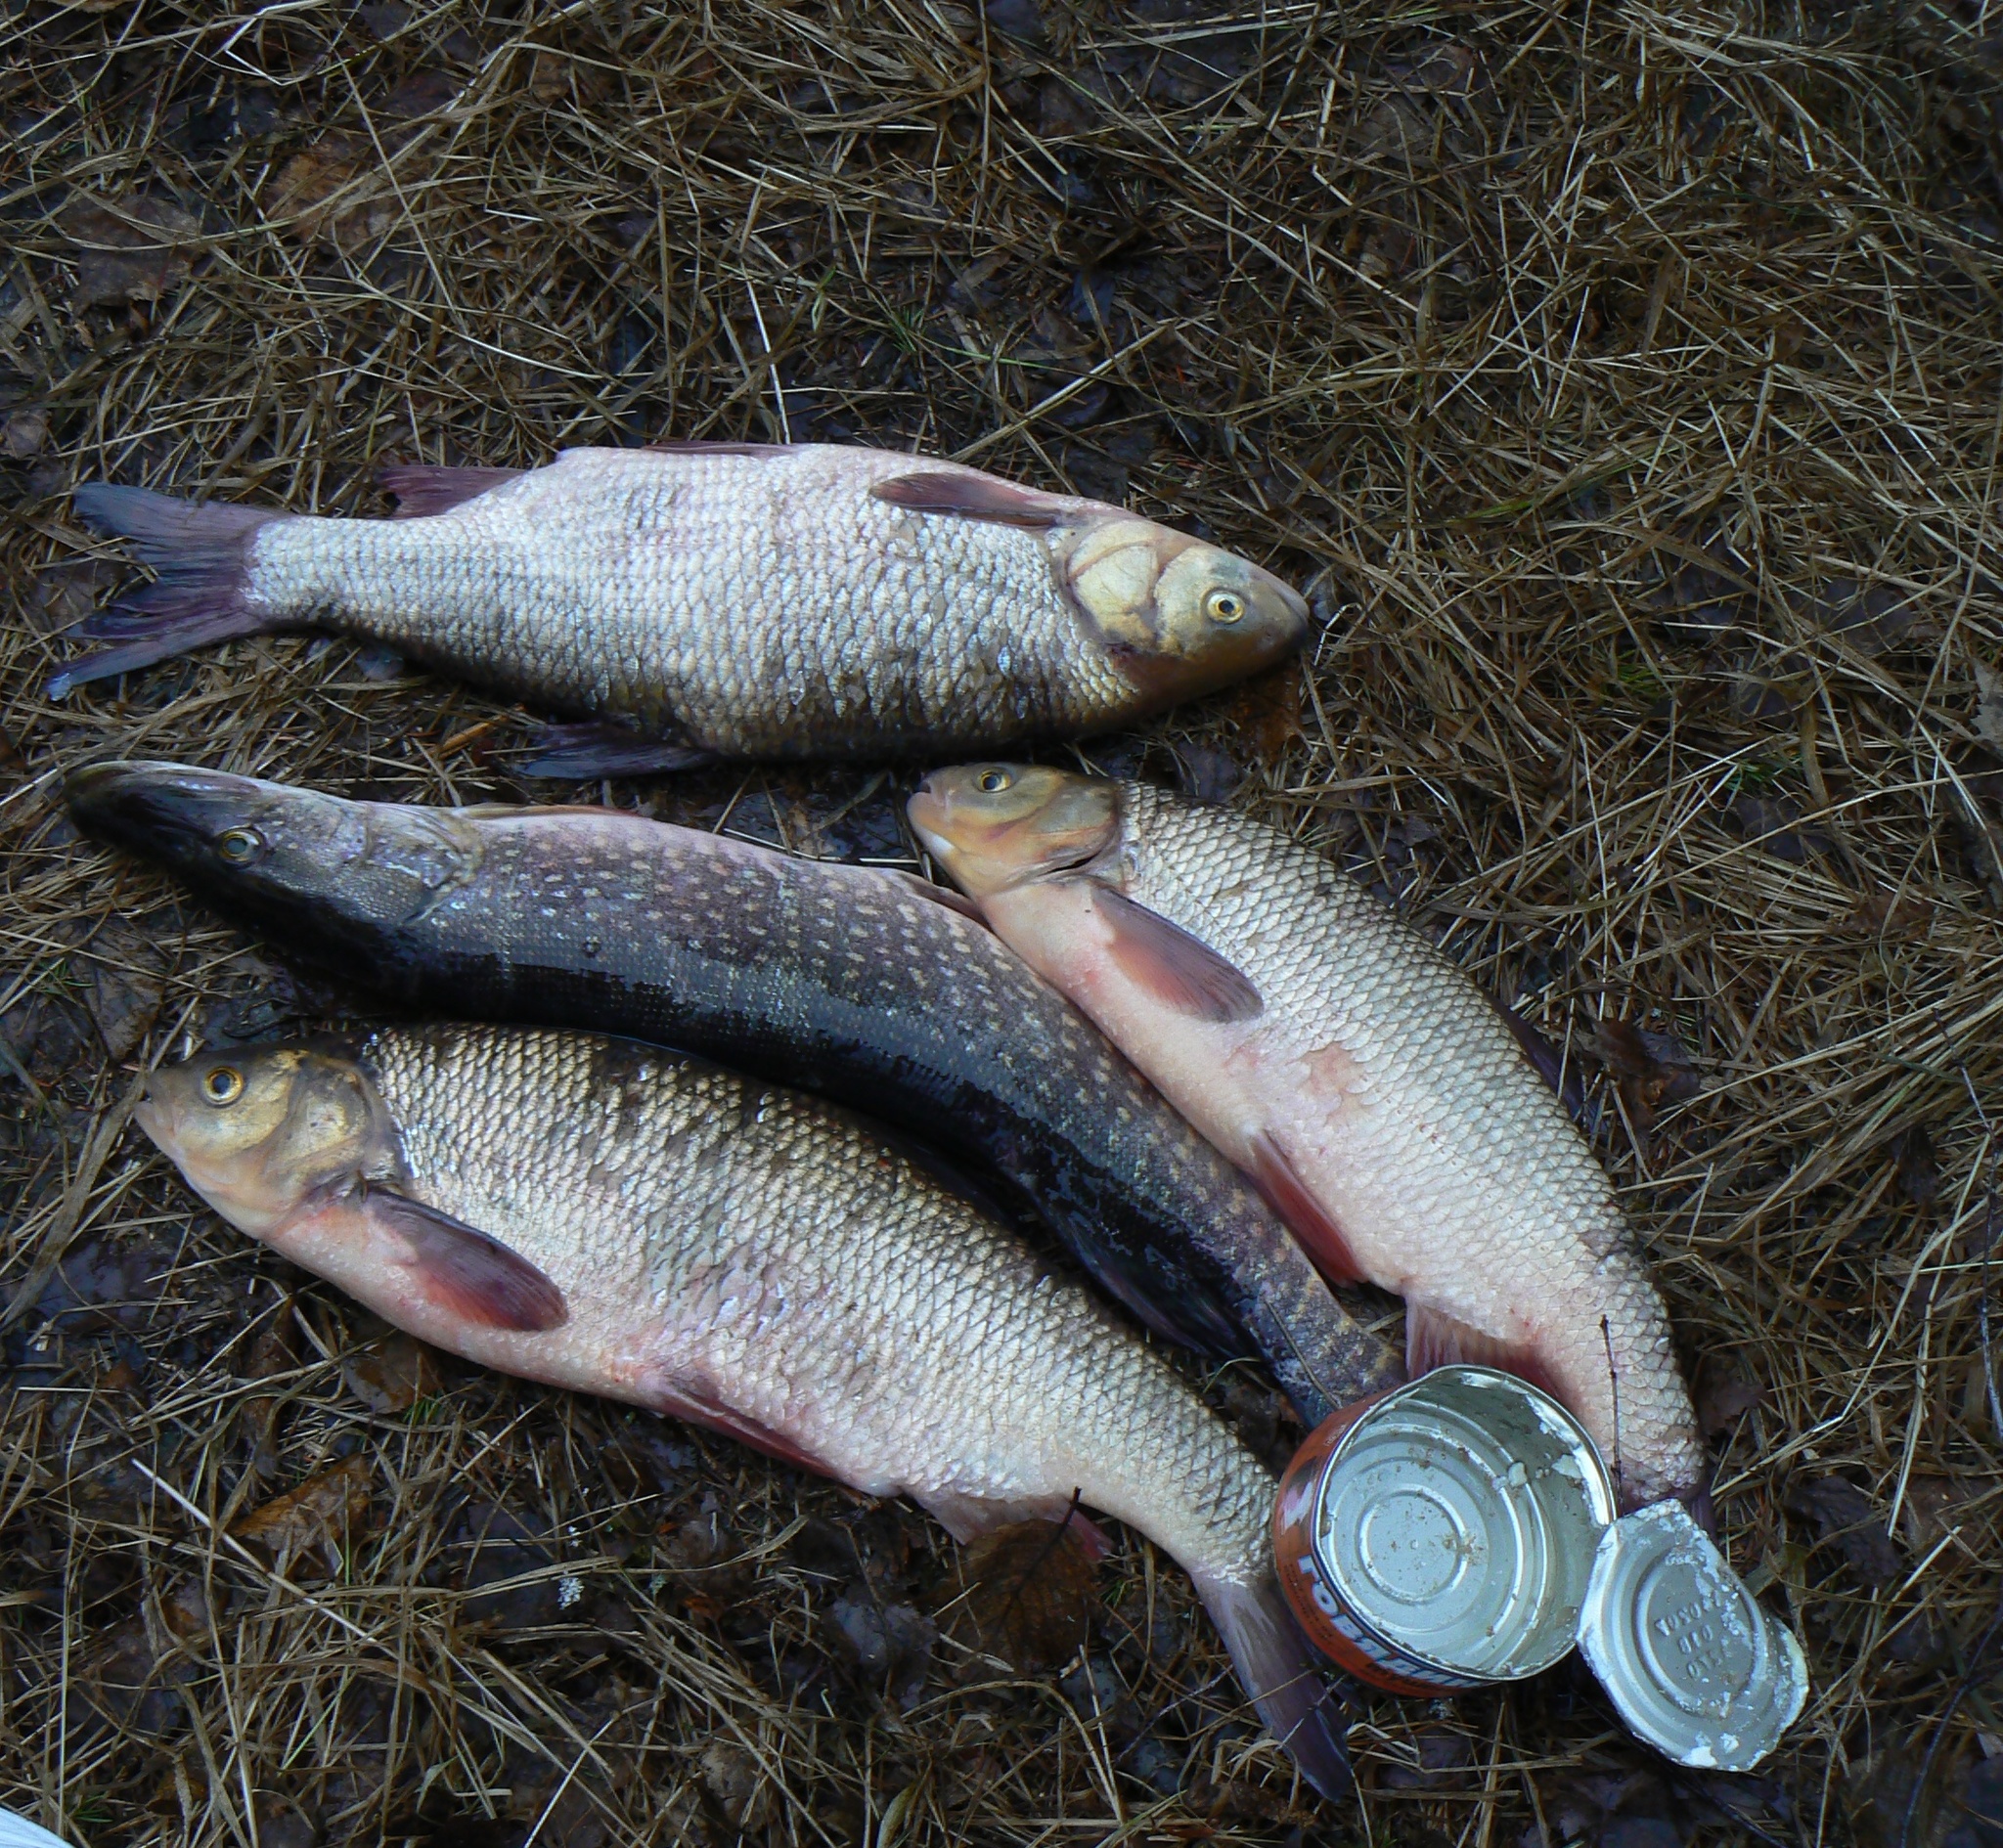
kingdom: Animalia
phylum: Chordata
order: Esociformes
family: Esocidae
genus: Esox
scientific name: Esox lucius
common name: Northern pike
